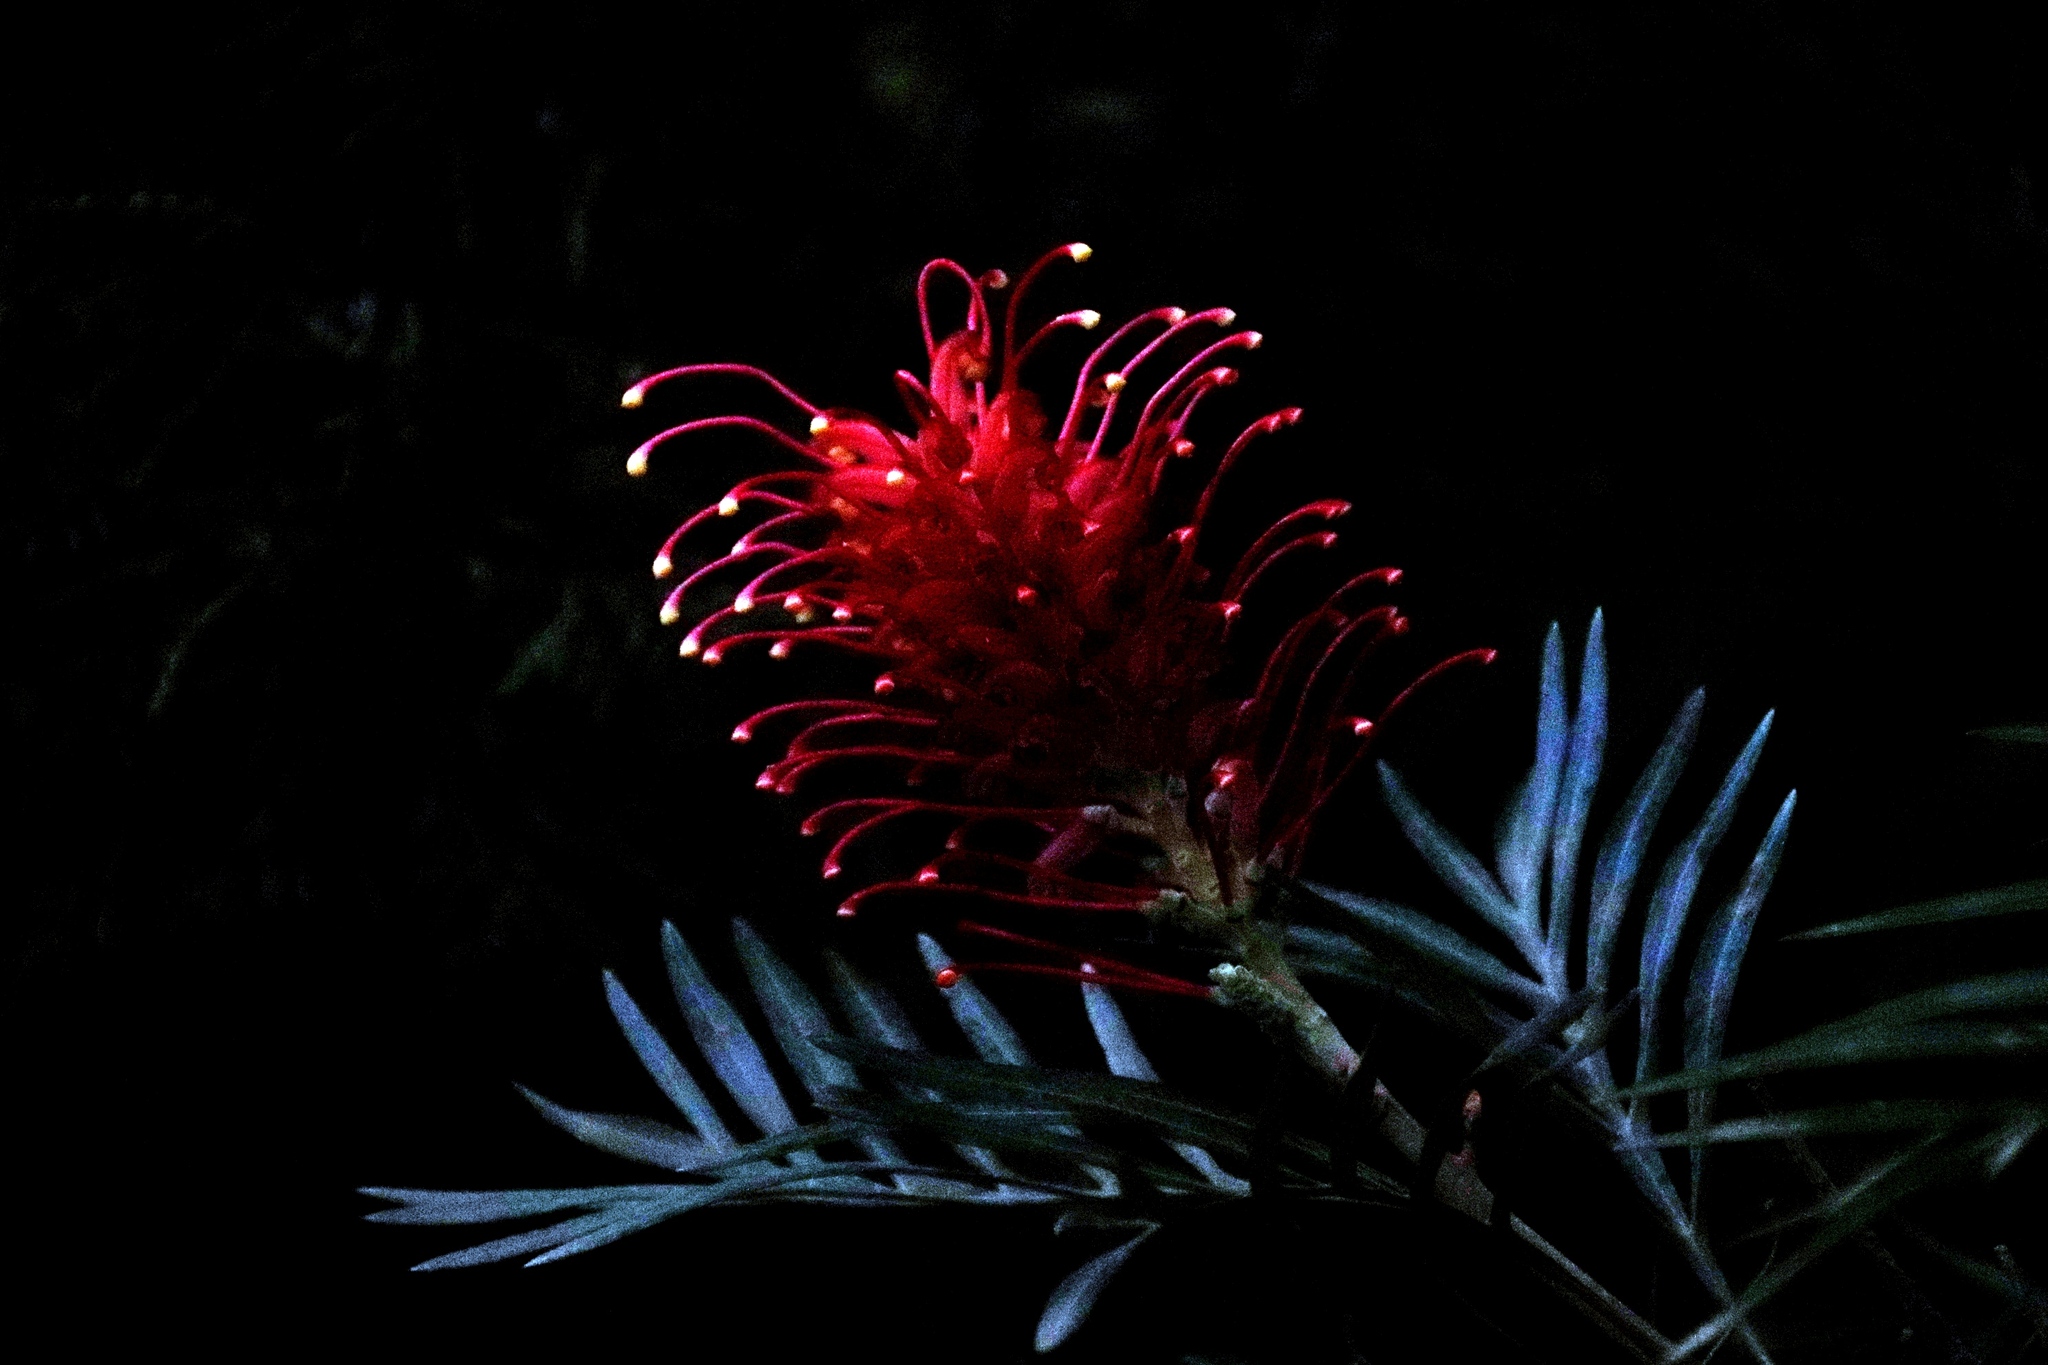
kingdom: Plantae
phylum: Tracheophyta
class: Magnoliopsida
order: Proteales
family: Proteaceae
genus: Grevillea
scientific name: Grevillea banksii
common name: Kahili flower
